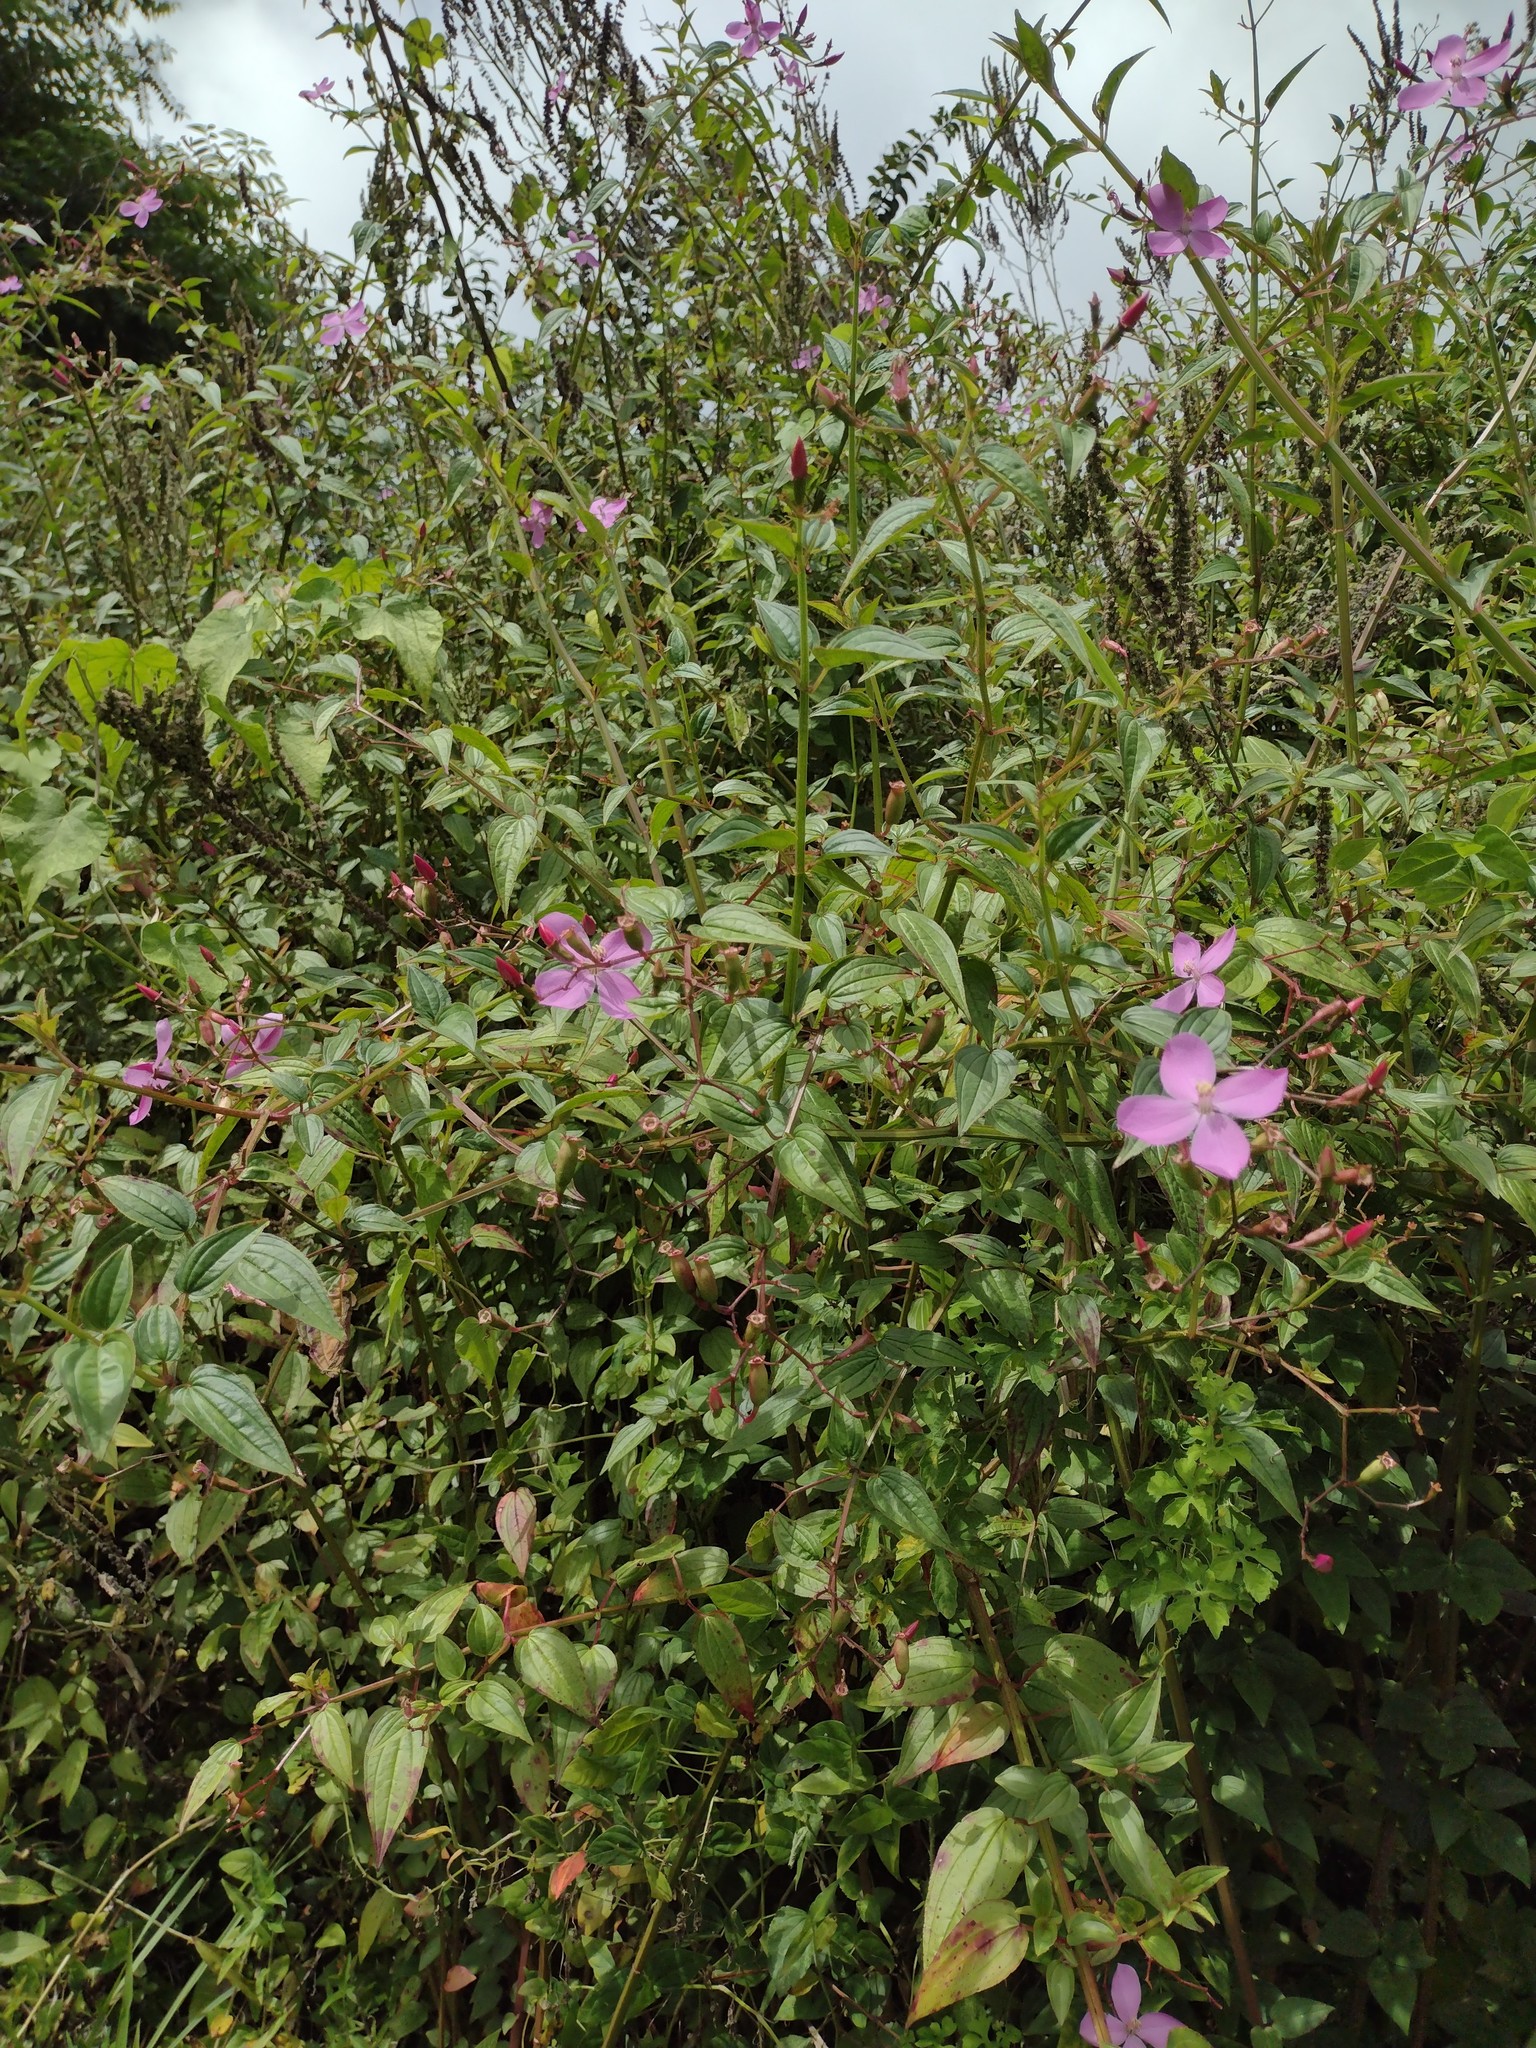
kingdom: Plantae
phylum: Tracheophyta
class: Magnoliopsida
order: Myrtales
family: Melastomataceae
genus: Arthrostemma
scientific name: Arthrostemma ciliatum
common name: Everblooming eavender
